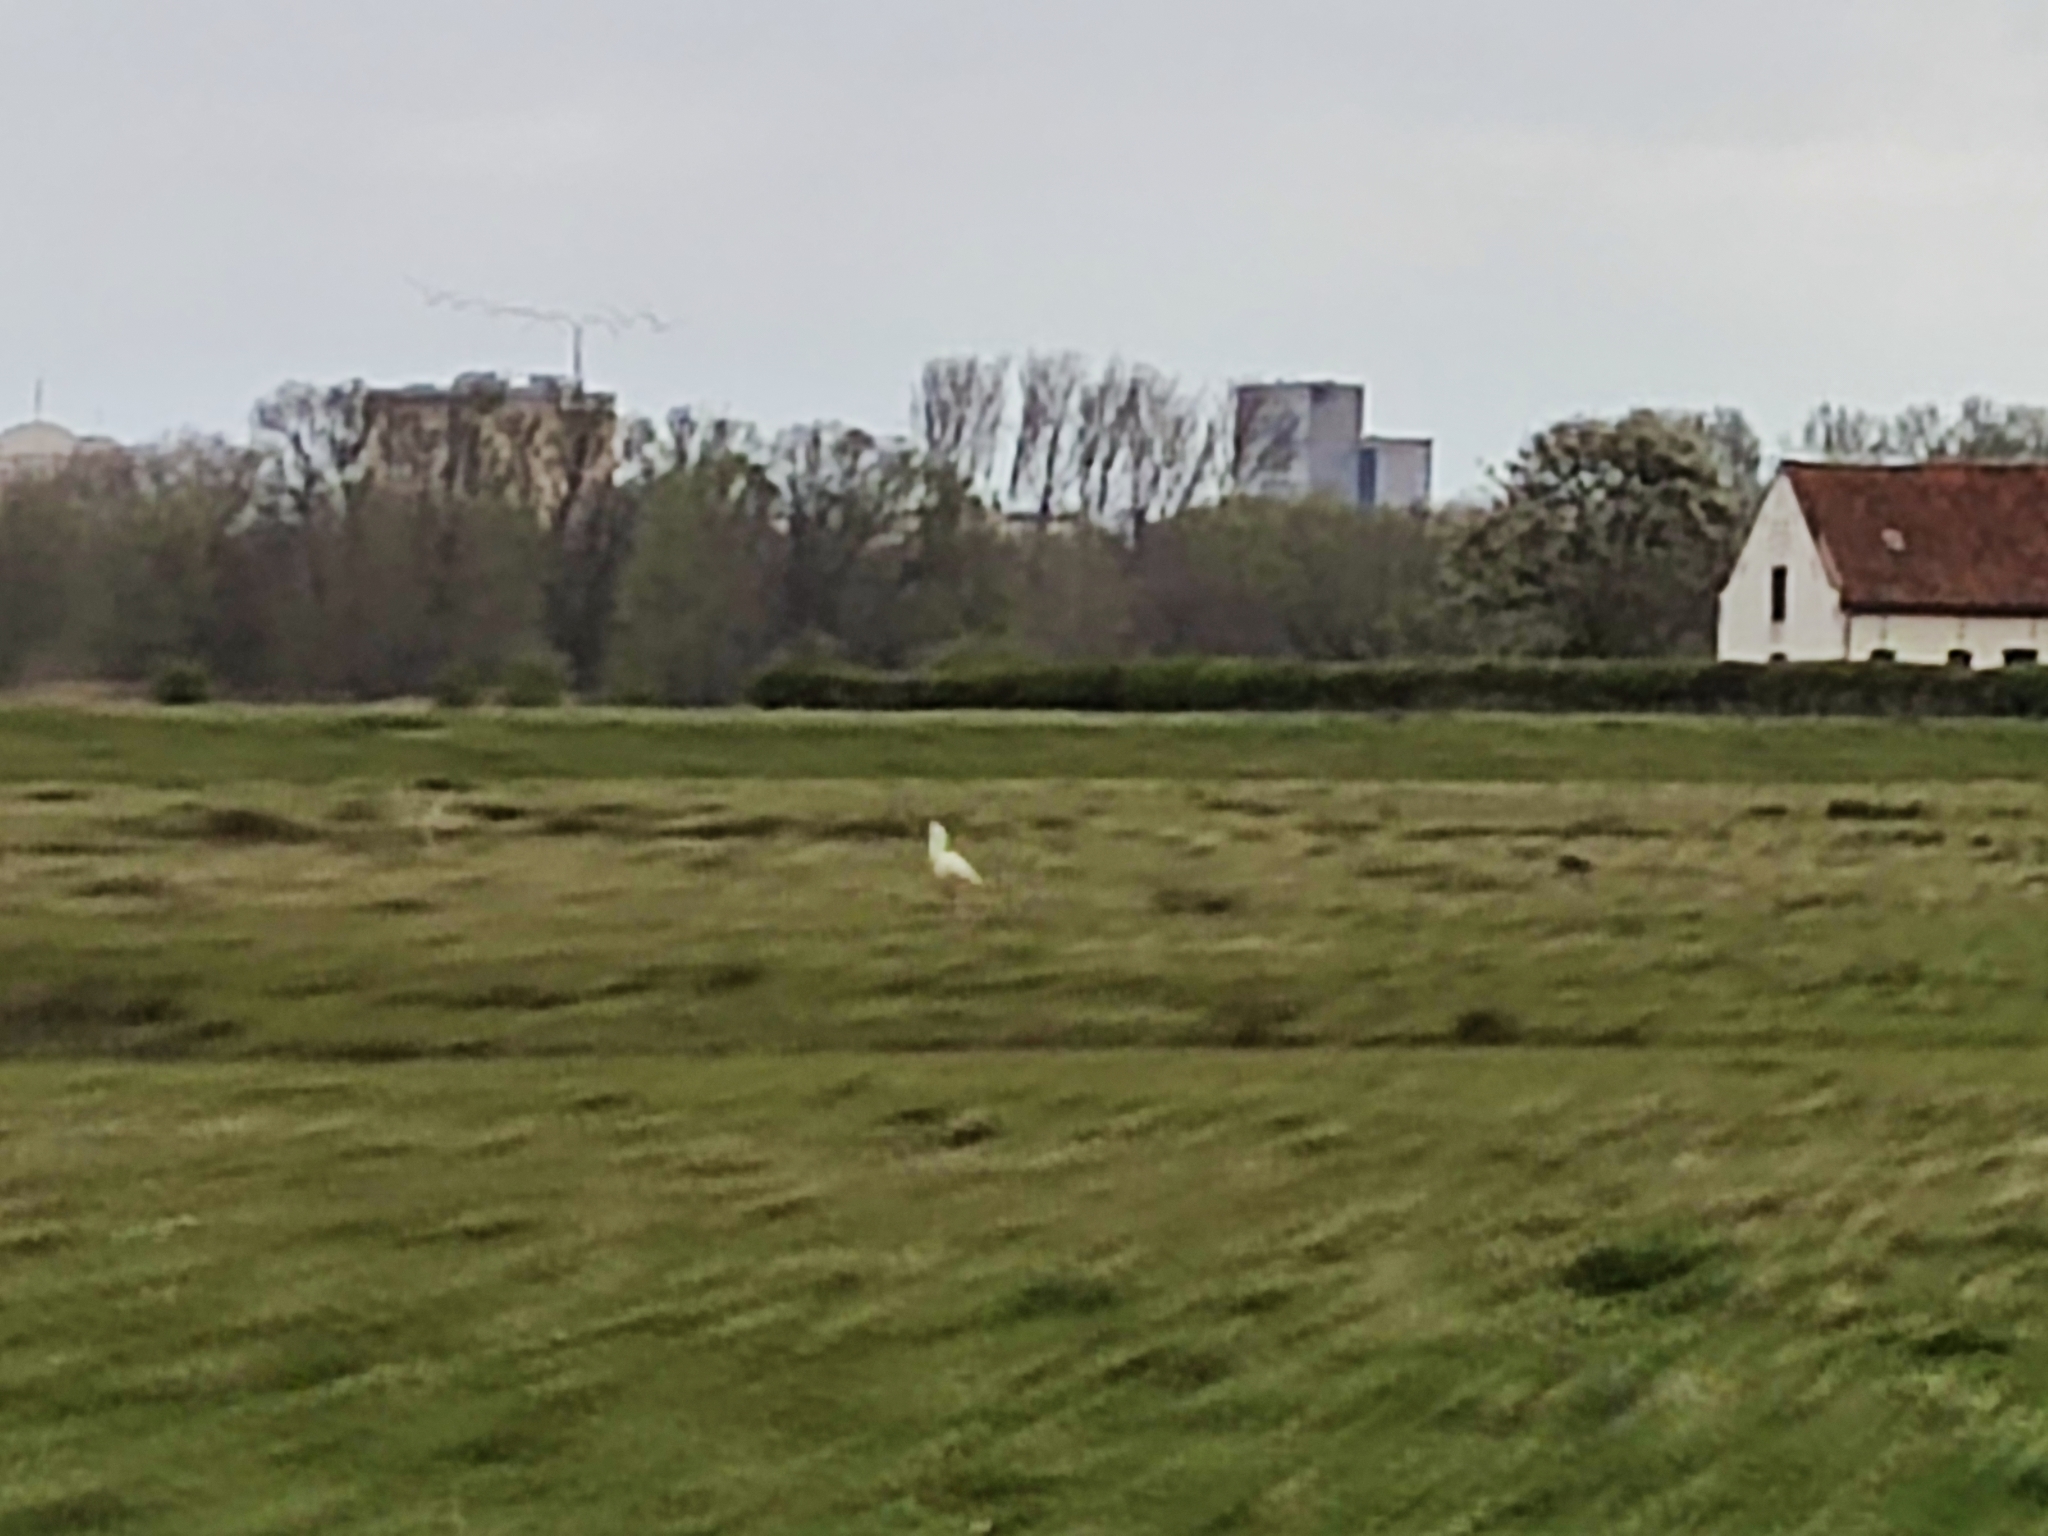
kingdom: Animalia
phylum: Chordata
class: Aves
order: Pelecaniformes
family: Threskiornithidae
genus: Platalea
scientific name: Platalea leucorodia
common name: Eurasian spoonbill
